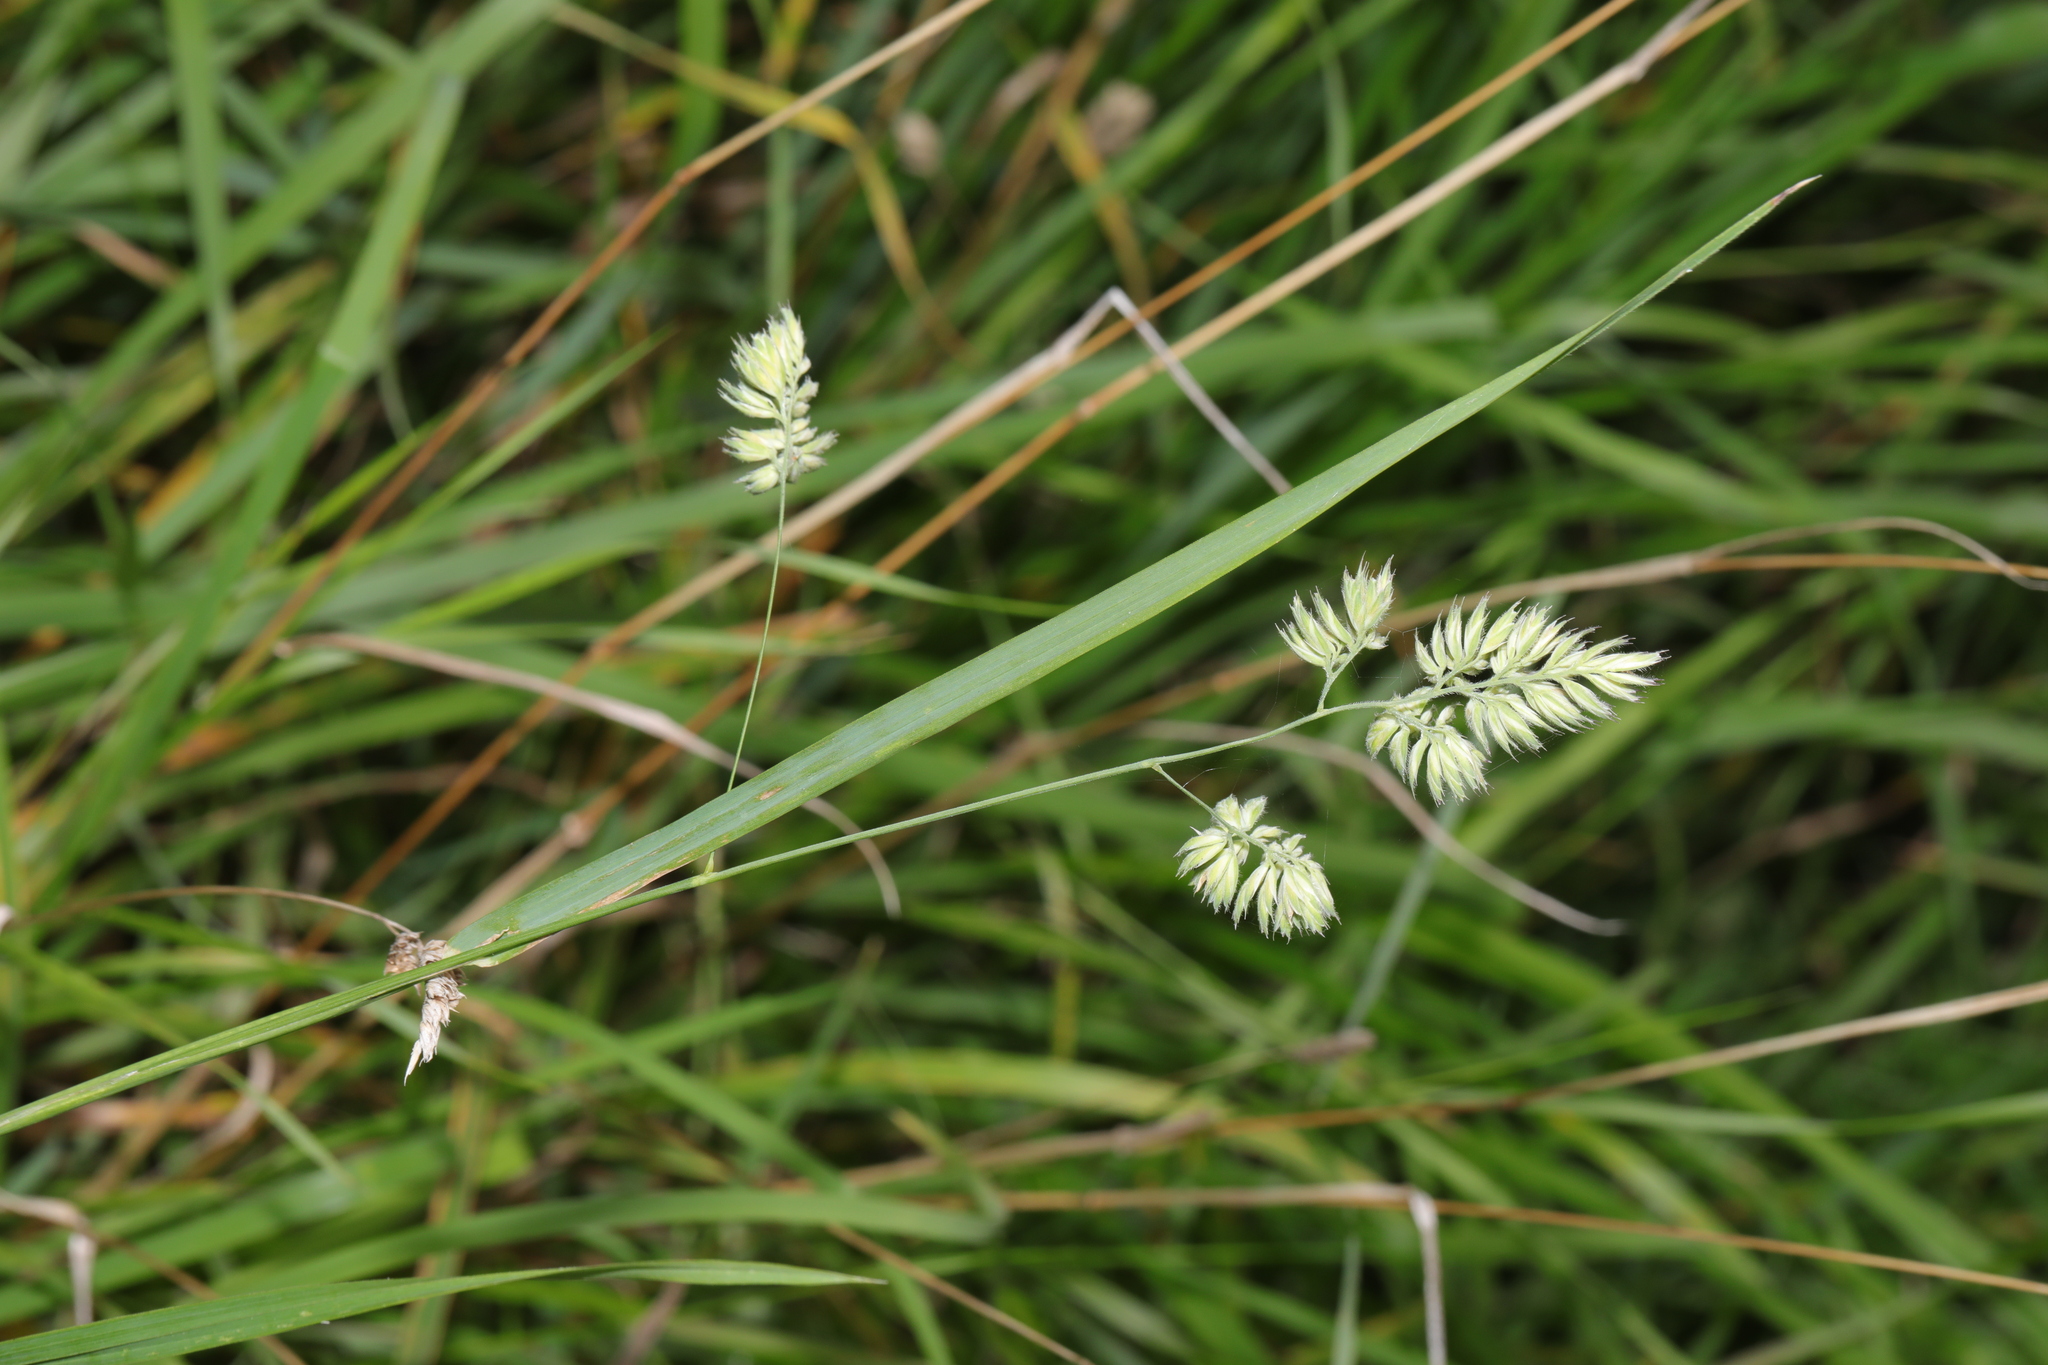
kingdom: Plantae
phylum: Tracheophyta
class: Liliopsida
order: Poales
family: Poaceae
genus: Dactylis
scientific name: Dactylis glomerata
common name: Orchardgrass
